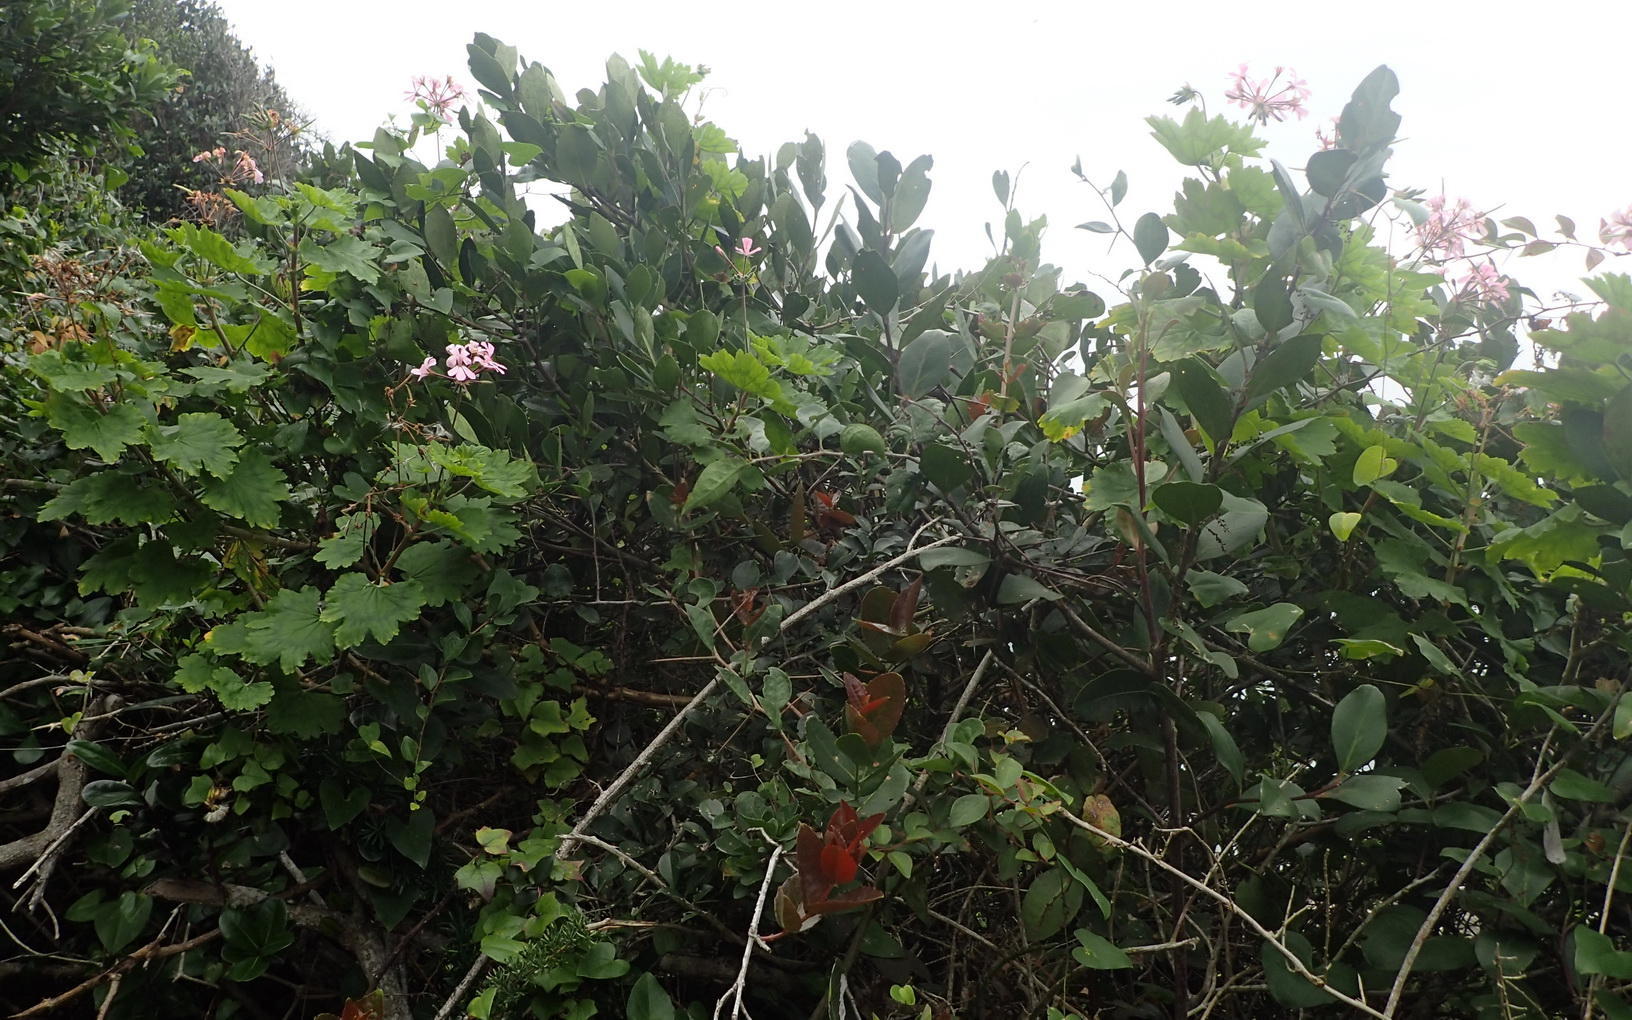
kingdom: Plantae
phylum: Tracheophyta
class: Magnoliopsida
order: Geraniales
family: Geraniaceae
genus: Pelargonium
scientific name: Pelargonium zonale
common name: Horseshoe geranium
